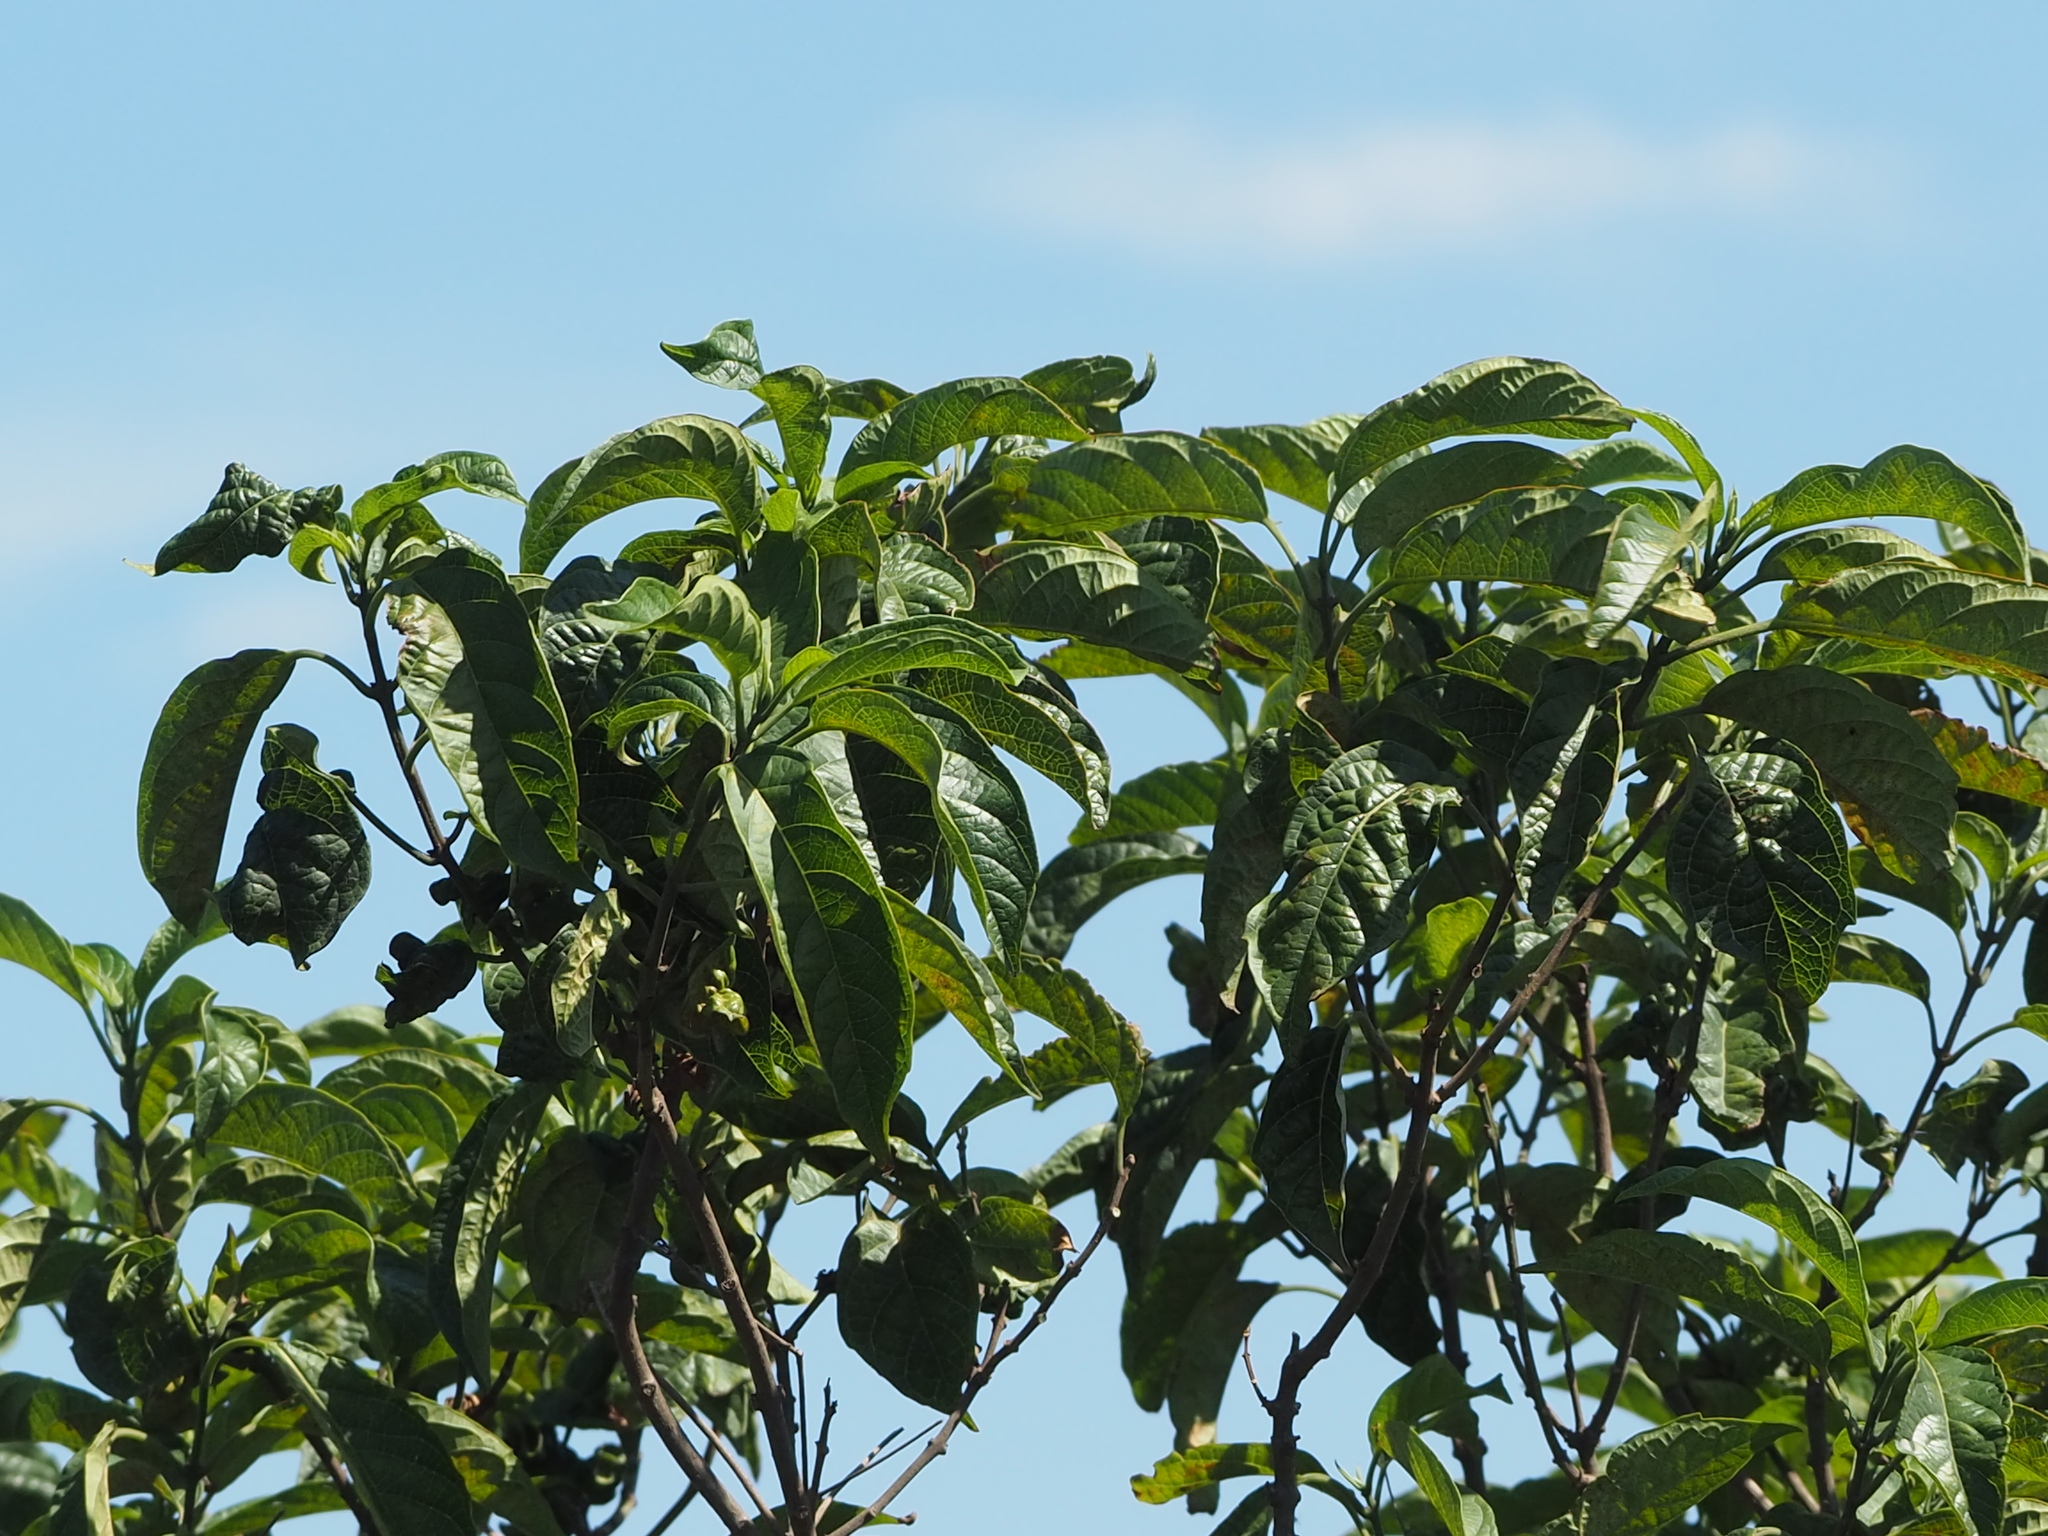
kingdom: Plantae
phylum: Tracheophyta
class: Magnoliopsida
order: Lamiales
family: Lamiaceae
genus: Clerodendrum
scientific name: Clerodendrum cyrtophyllum
